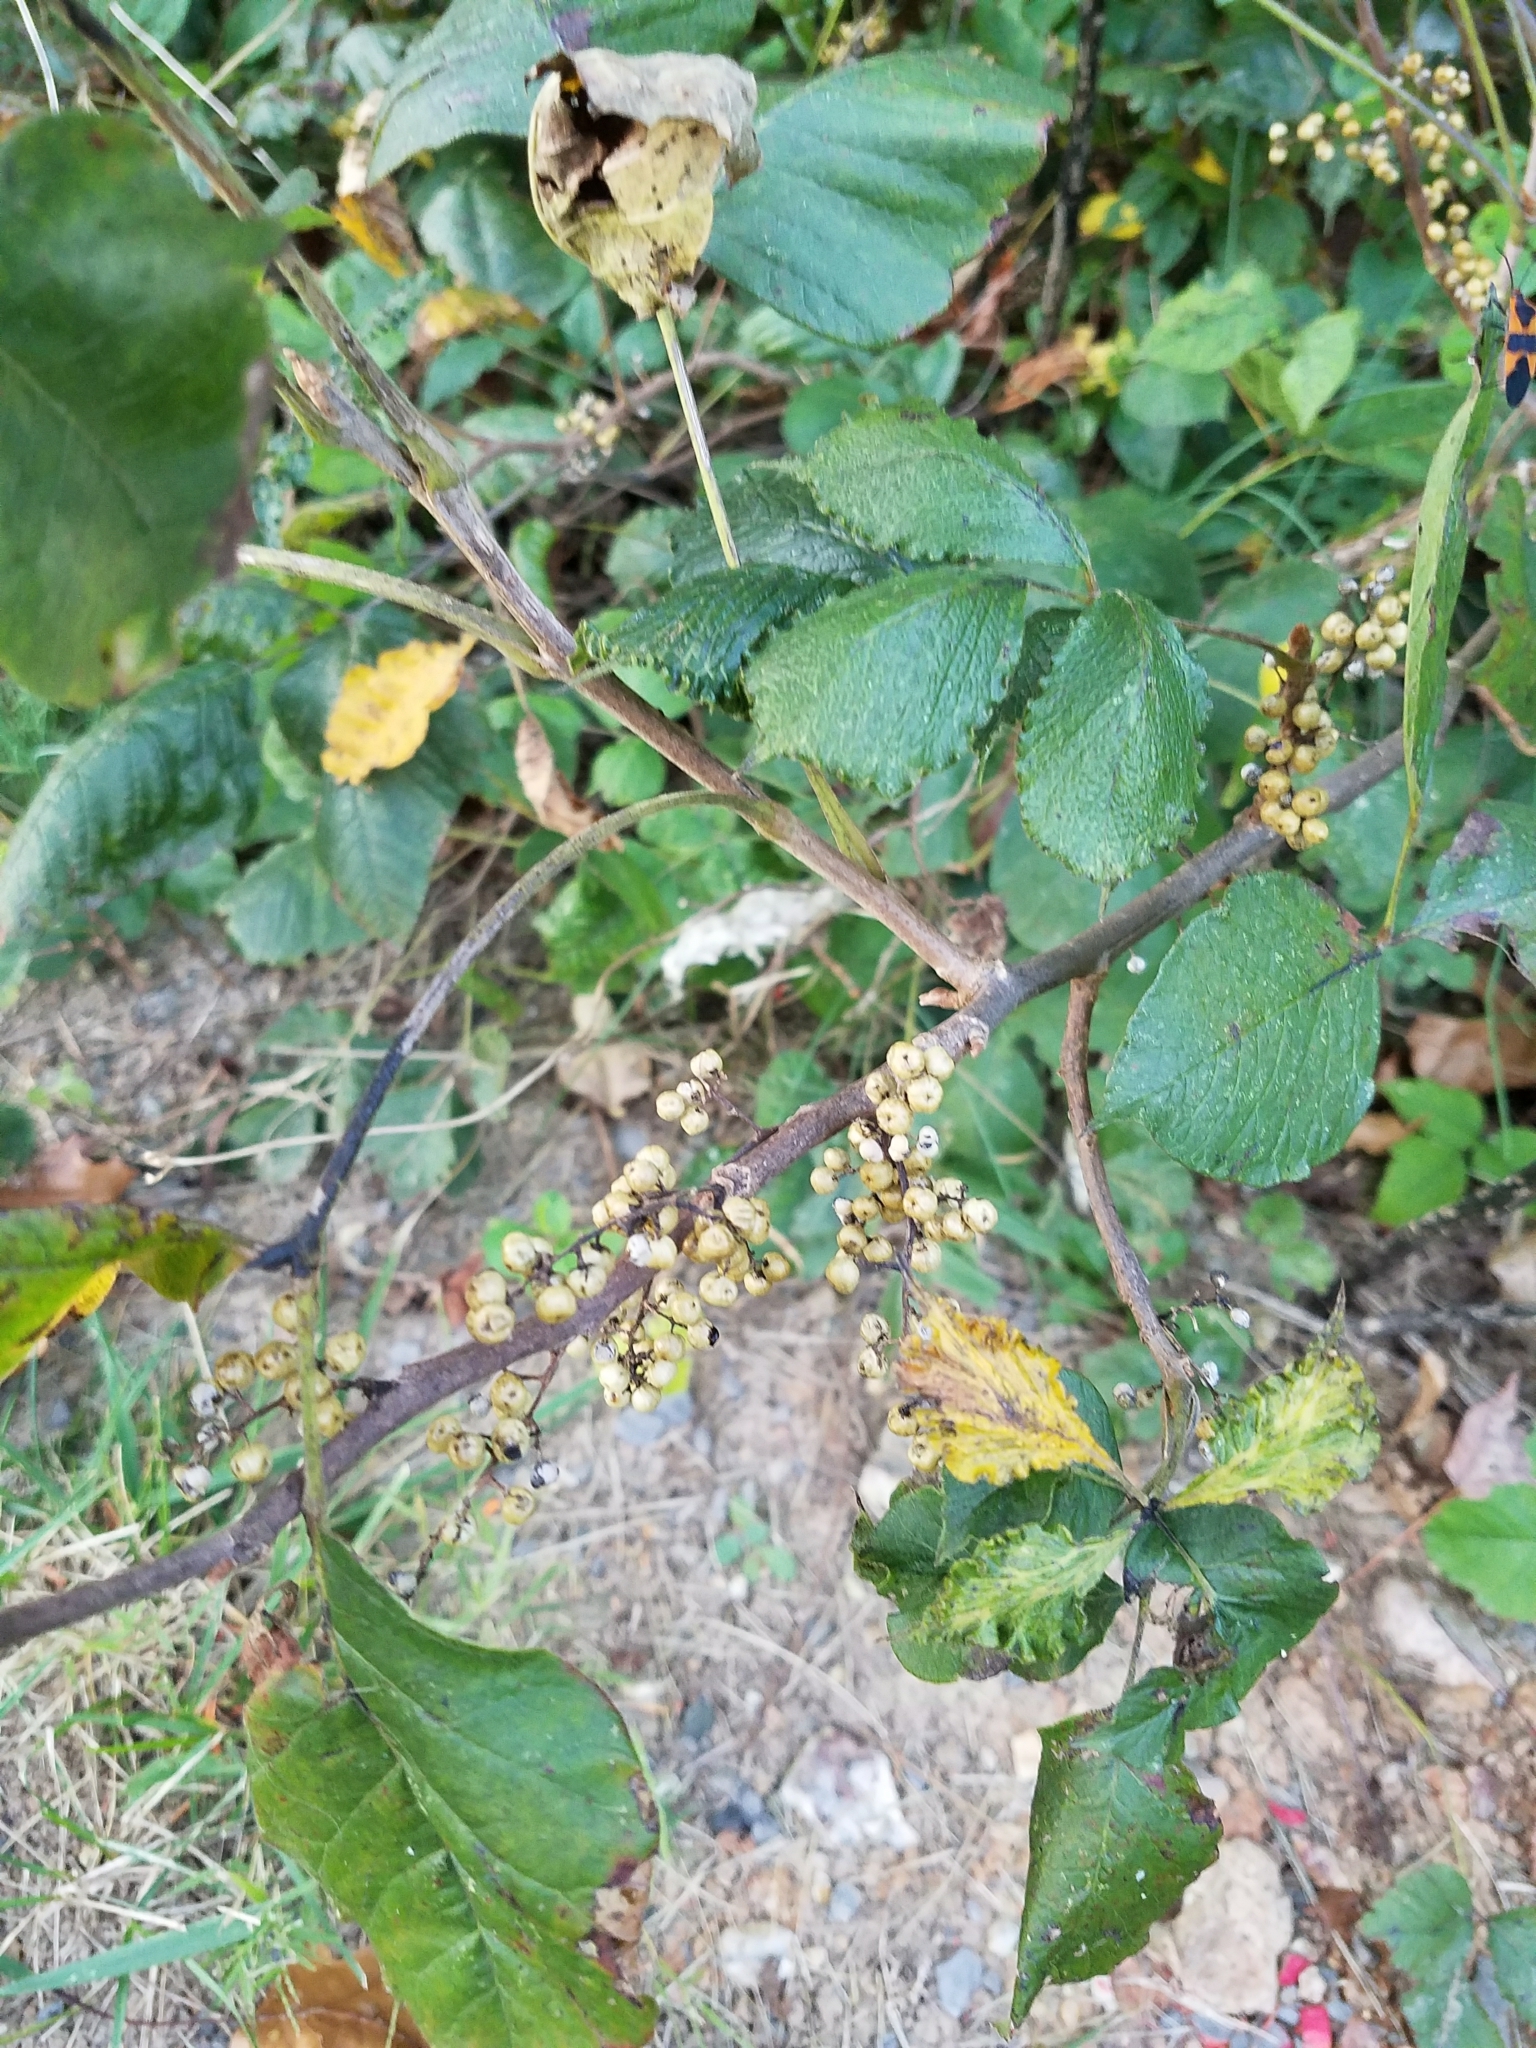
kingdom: Plantae
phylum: Tracheophyta
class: Magnoliopsida
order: Sapindales
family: Anacardiaceae
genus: Toxicodendron
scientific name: Toxicodendron radicans
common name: Poison ivy
